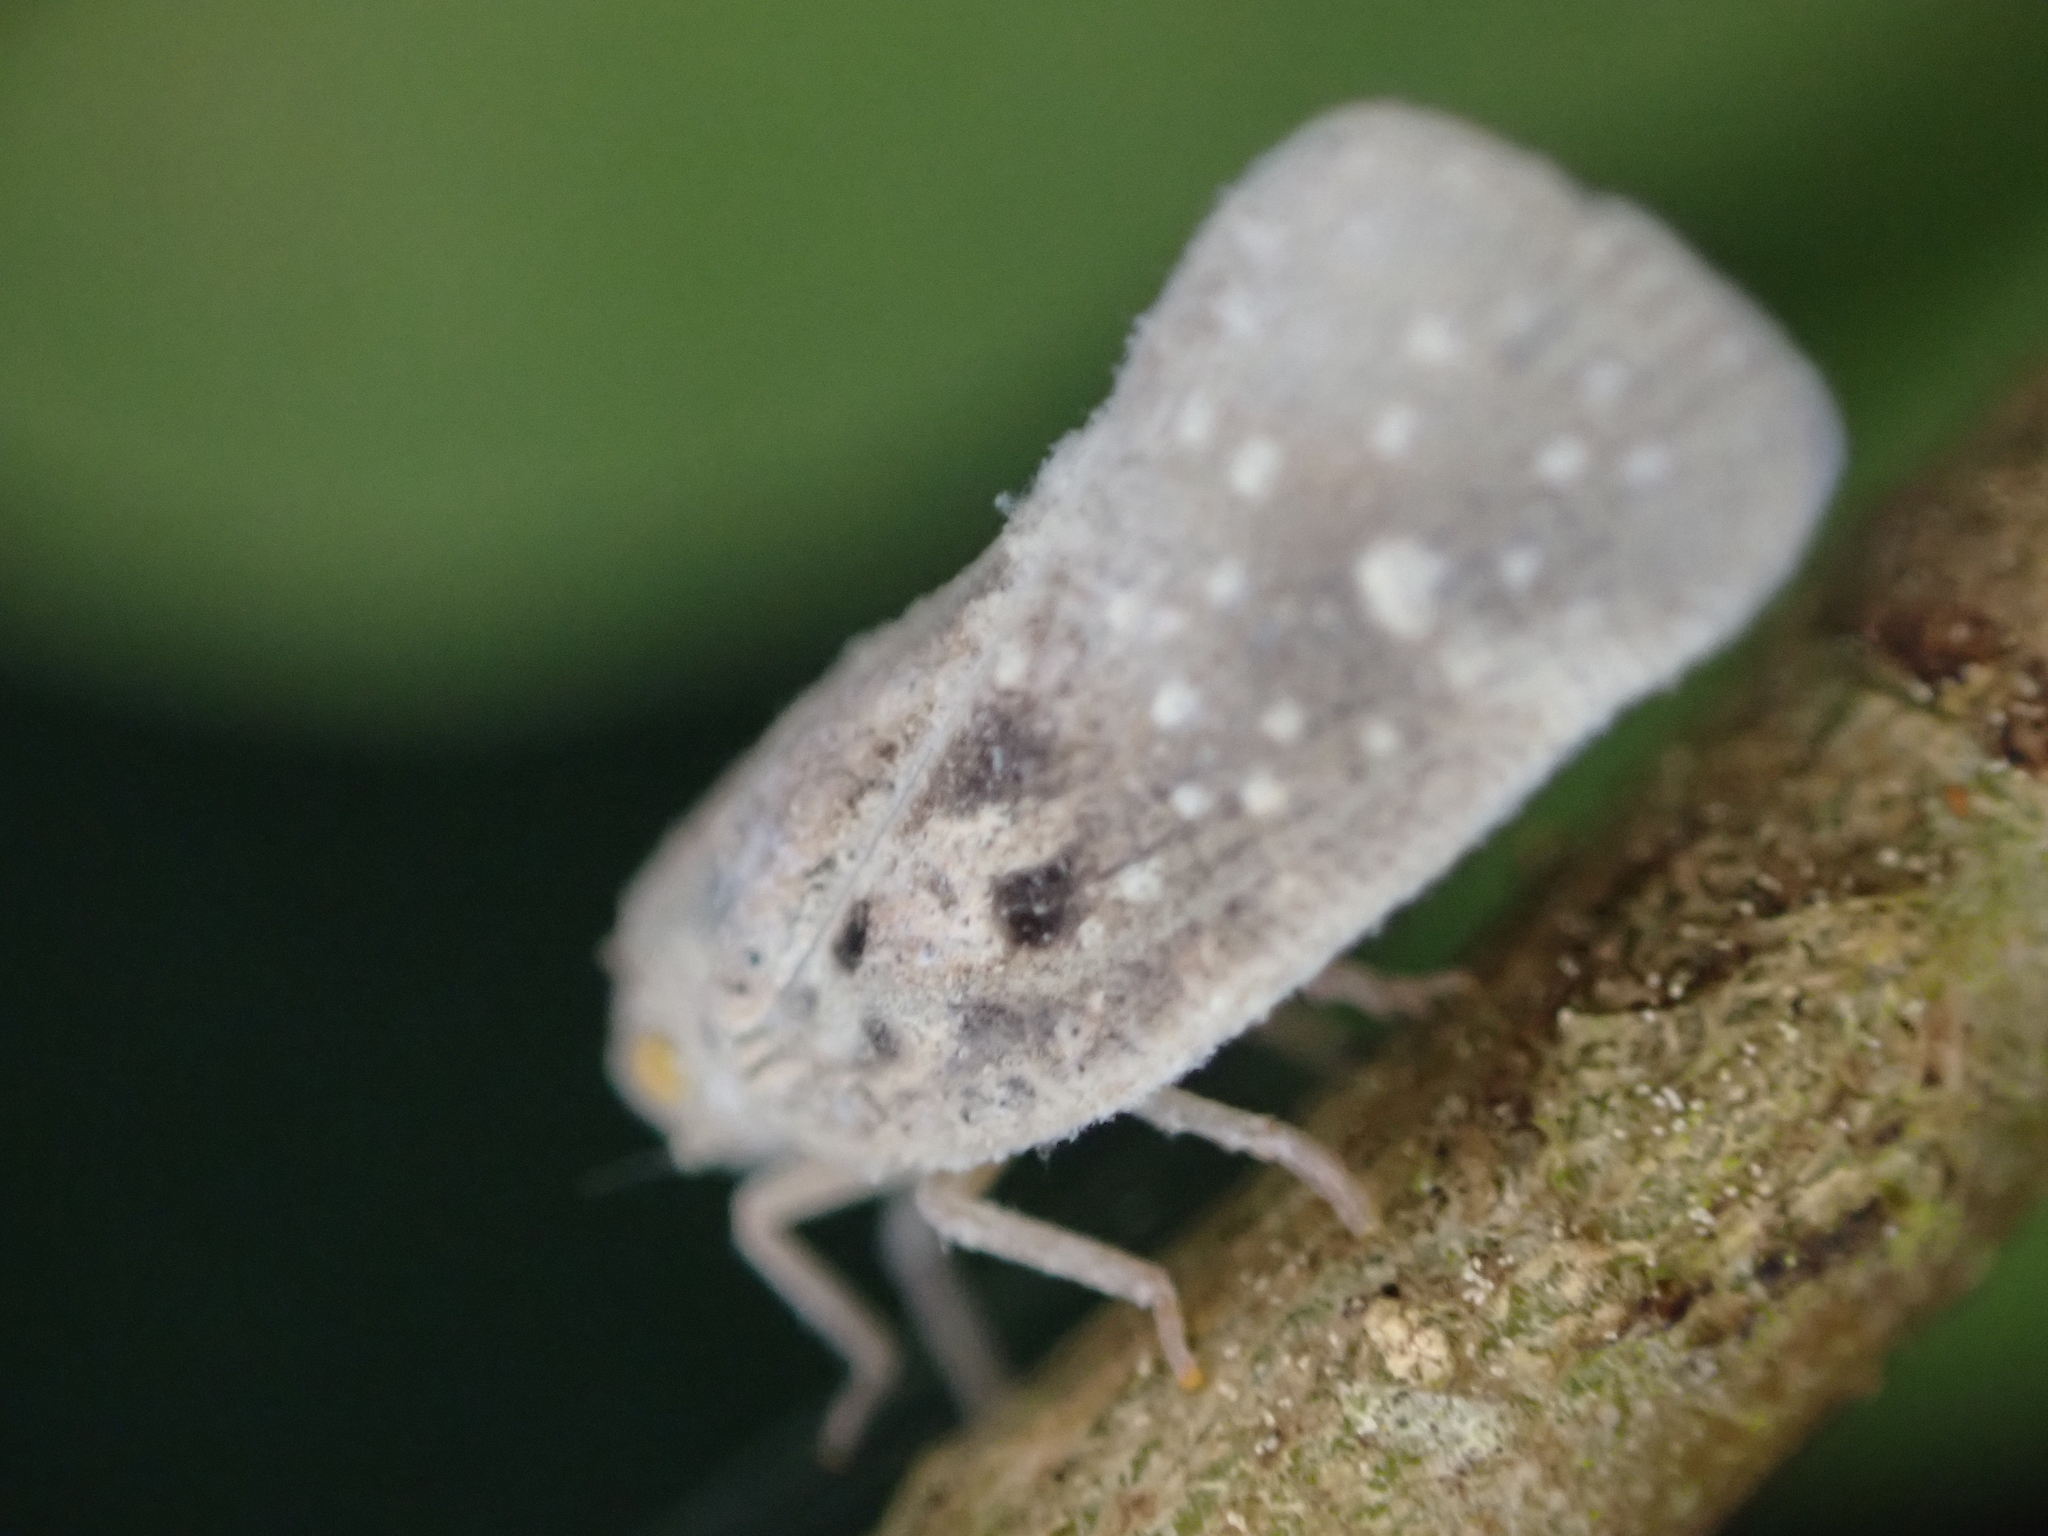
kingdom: Animalia
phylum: Arthropoda
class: Insecta
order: Hemiptera
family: Flatidae
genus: Metcalfa
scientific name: Metcalfa pruinosa
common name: Citrus flatid planthopper
